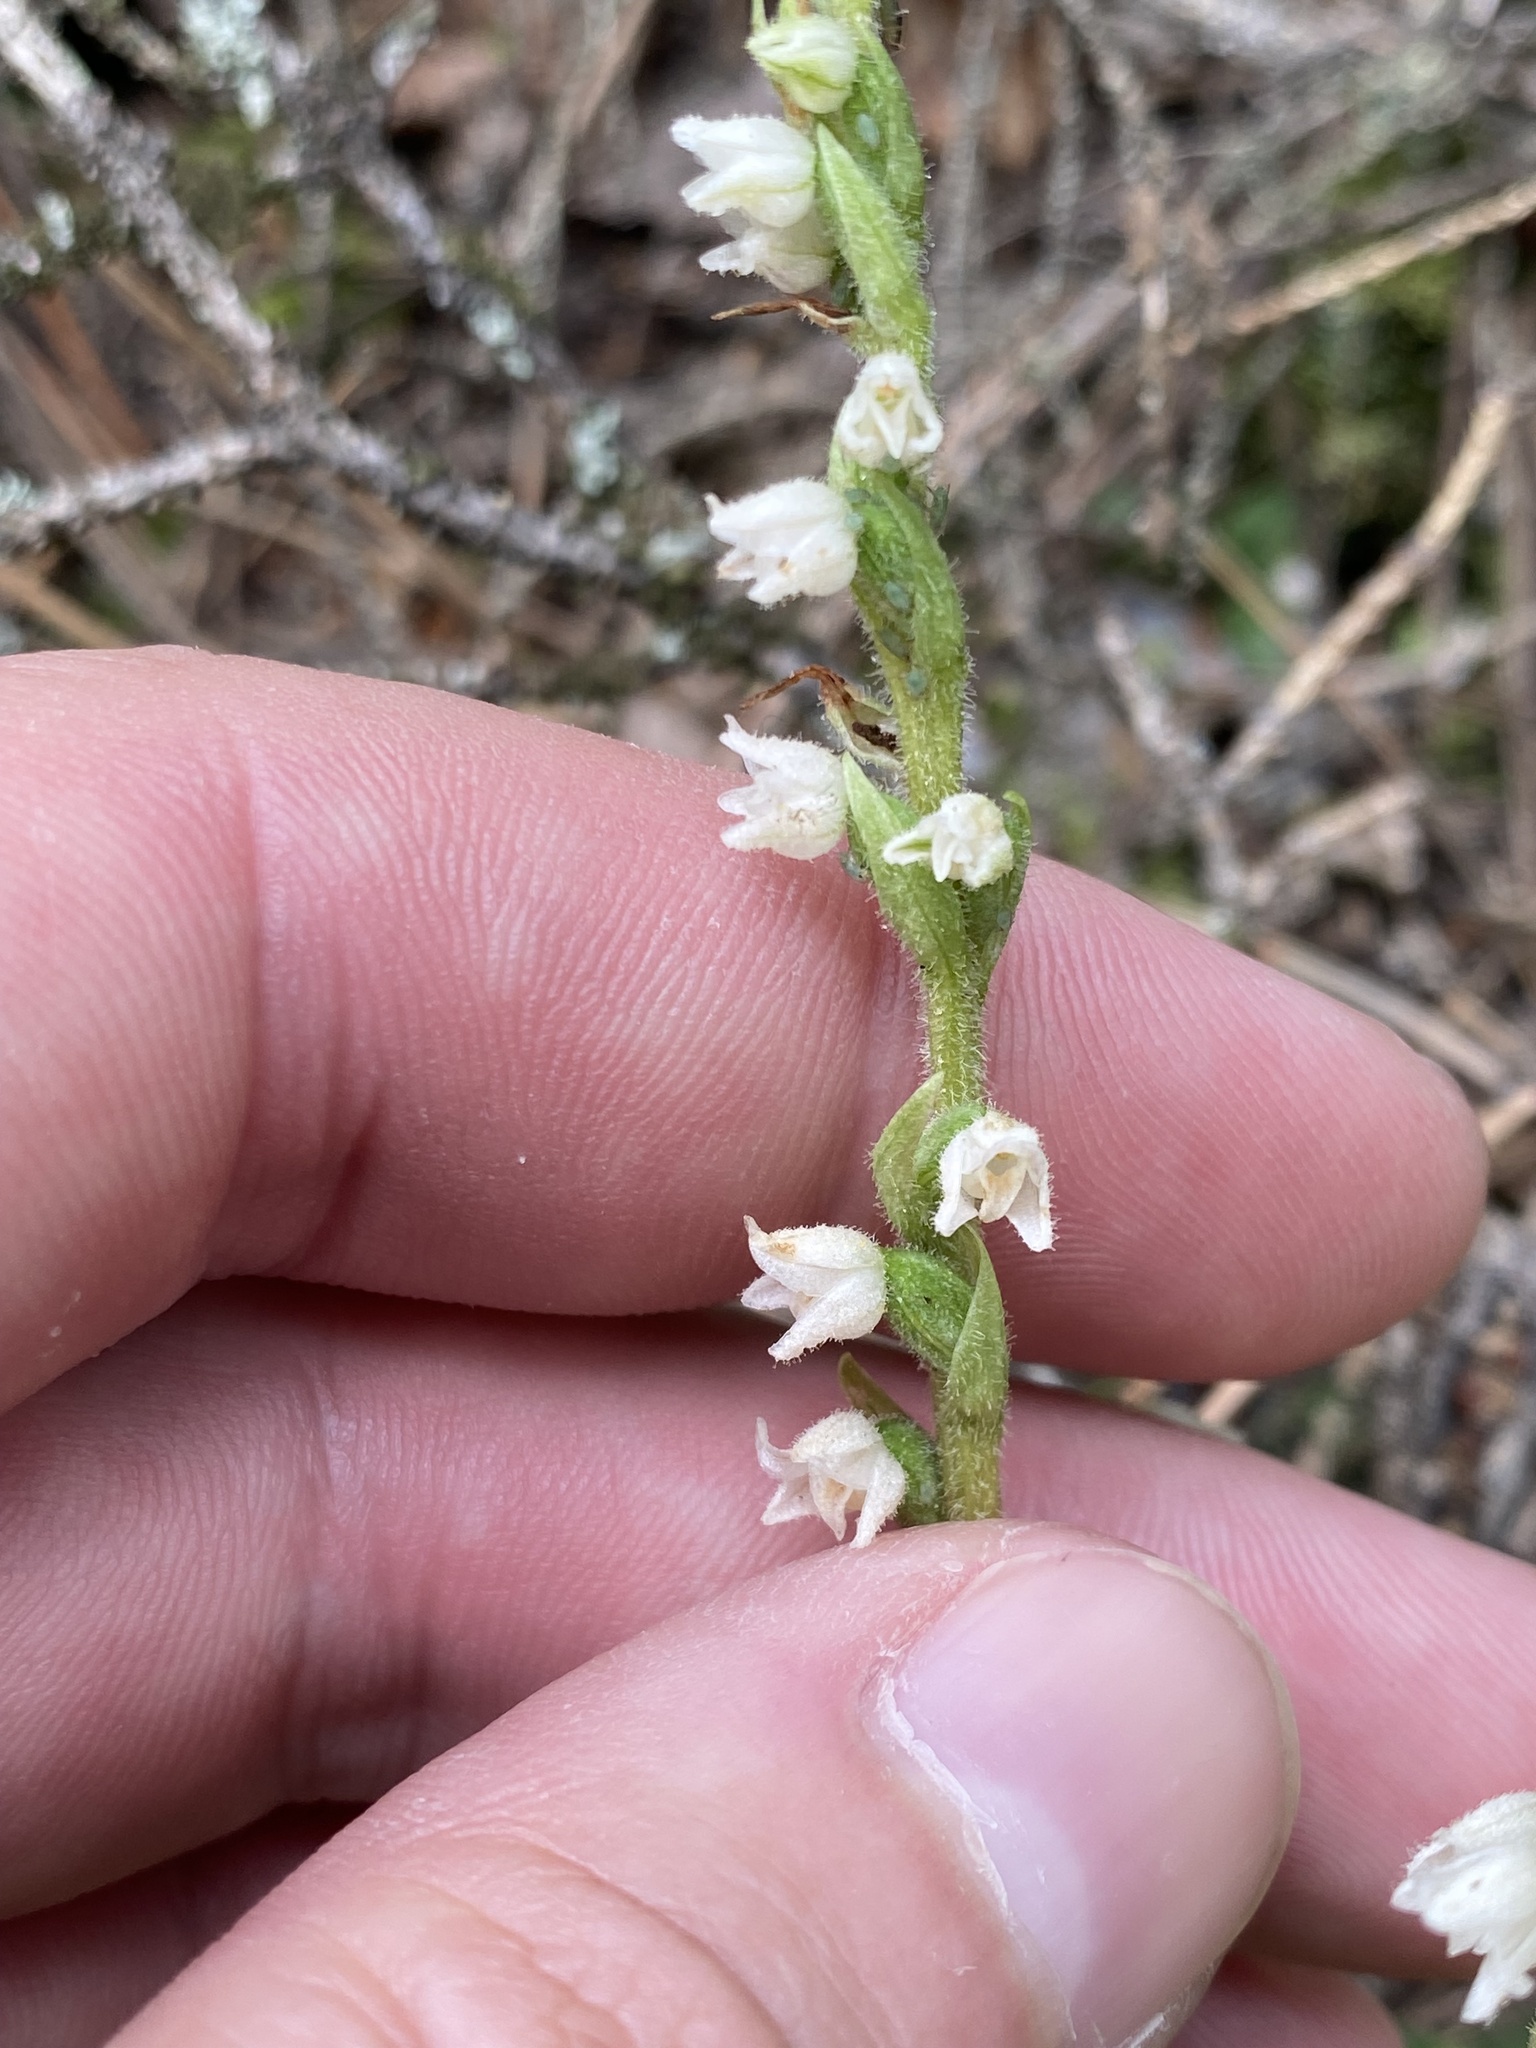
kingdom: Plantae
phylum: Tracheophyta
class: Liliopsida
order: Asparagales
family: Orchidaceae
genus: Goodyera
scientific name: Goodyera repens
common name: Creeping lady's-tresses
